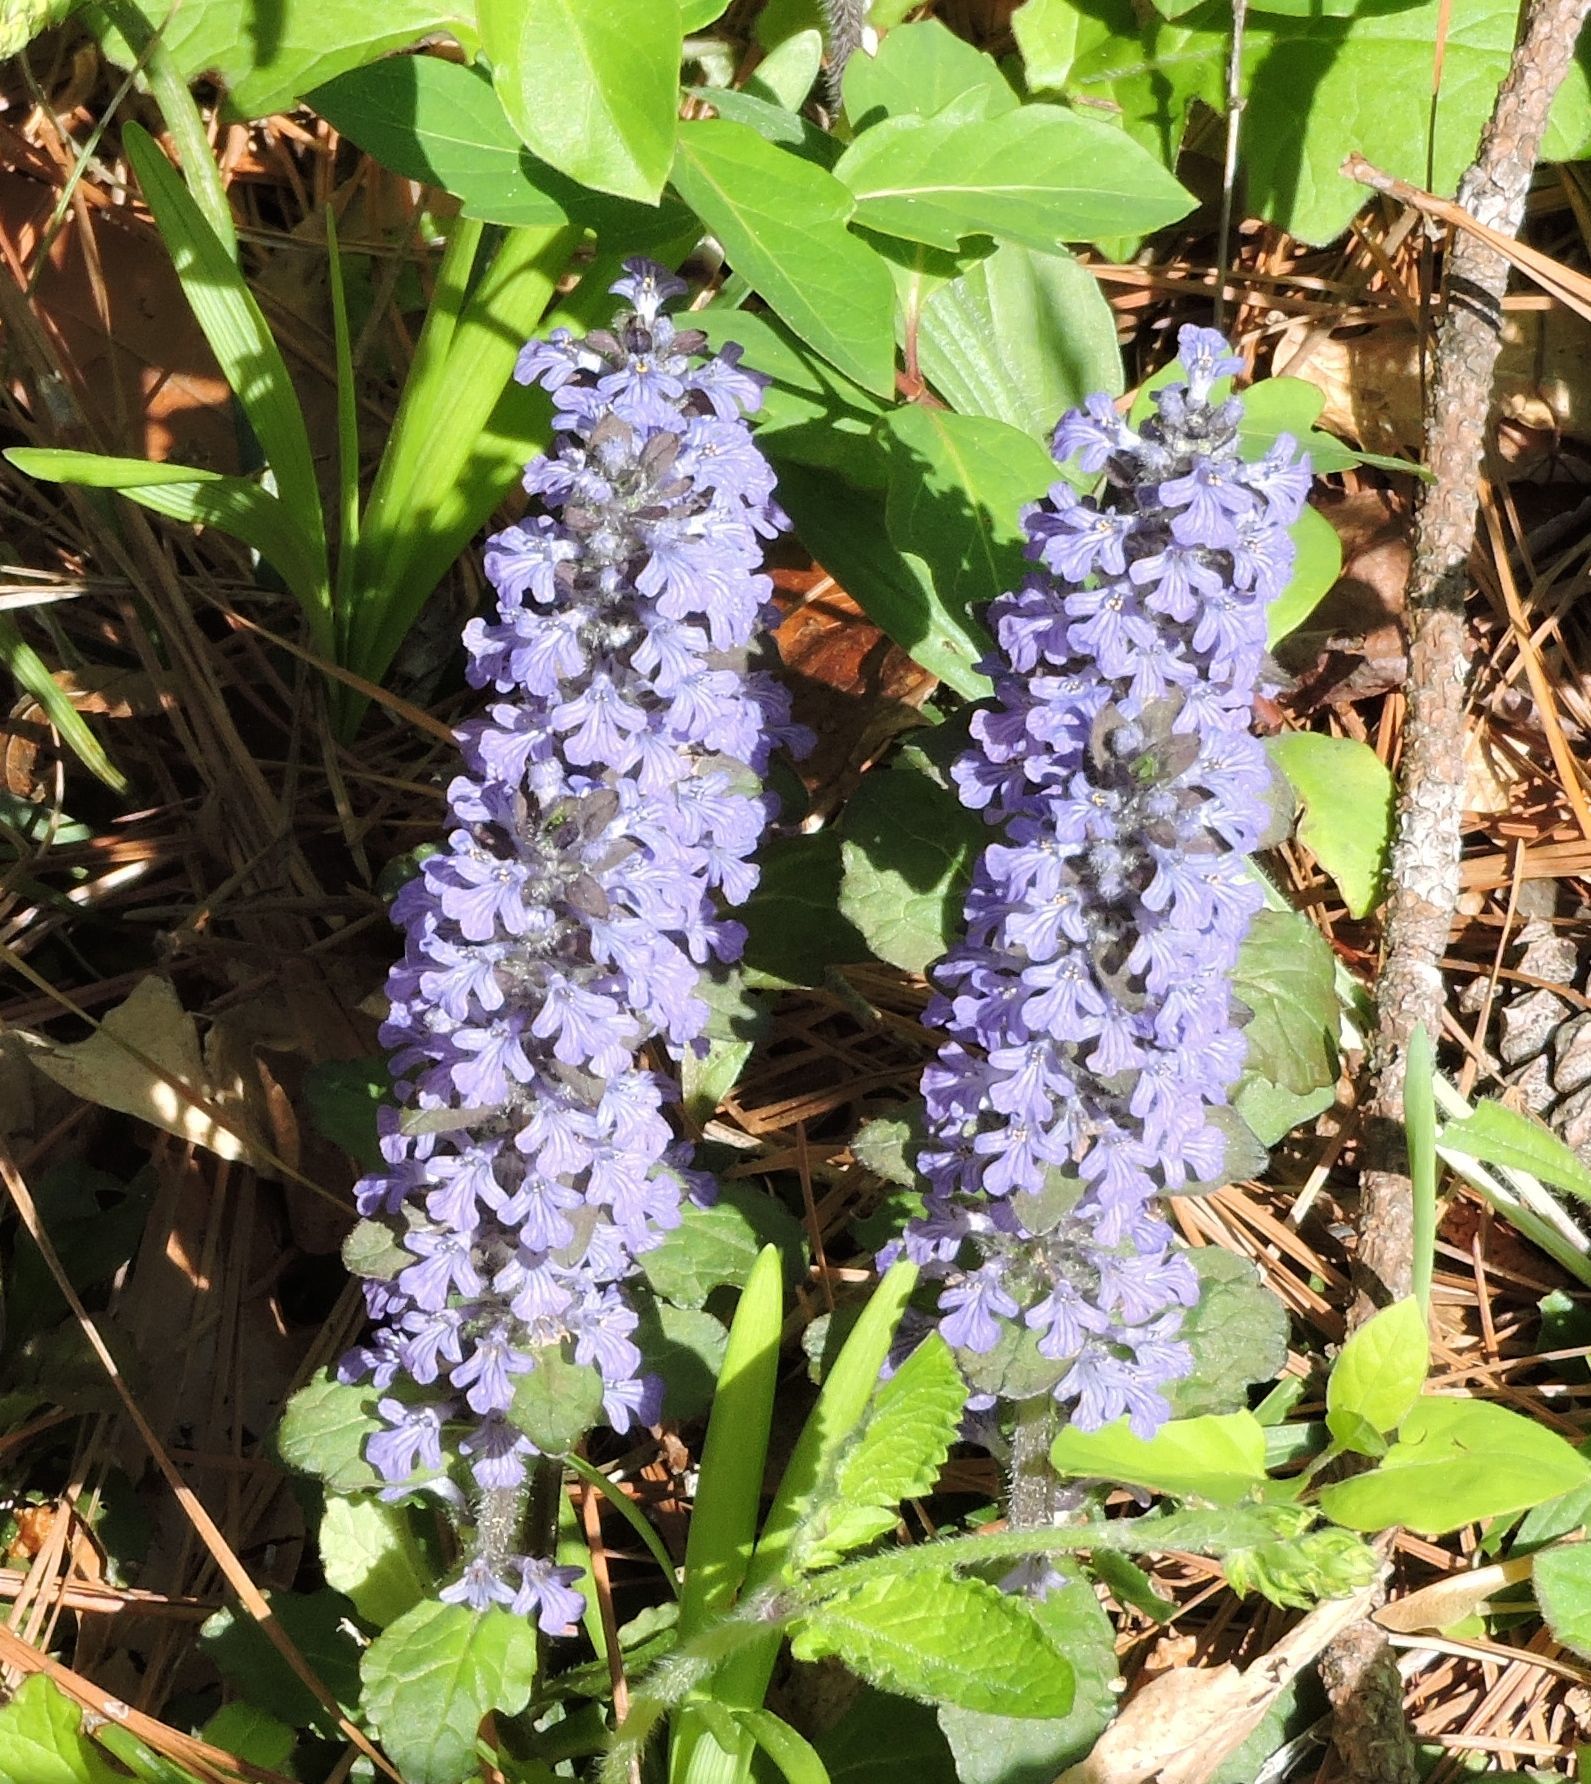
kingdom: Plantae
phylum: Tracheophyta
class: Magnoliopsida
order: Lamiales
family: Lamiaceae
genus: Ajuga
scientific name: Ajuga reptans
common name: Bugle
